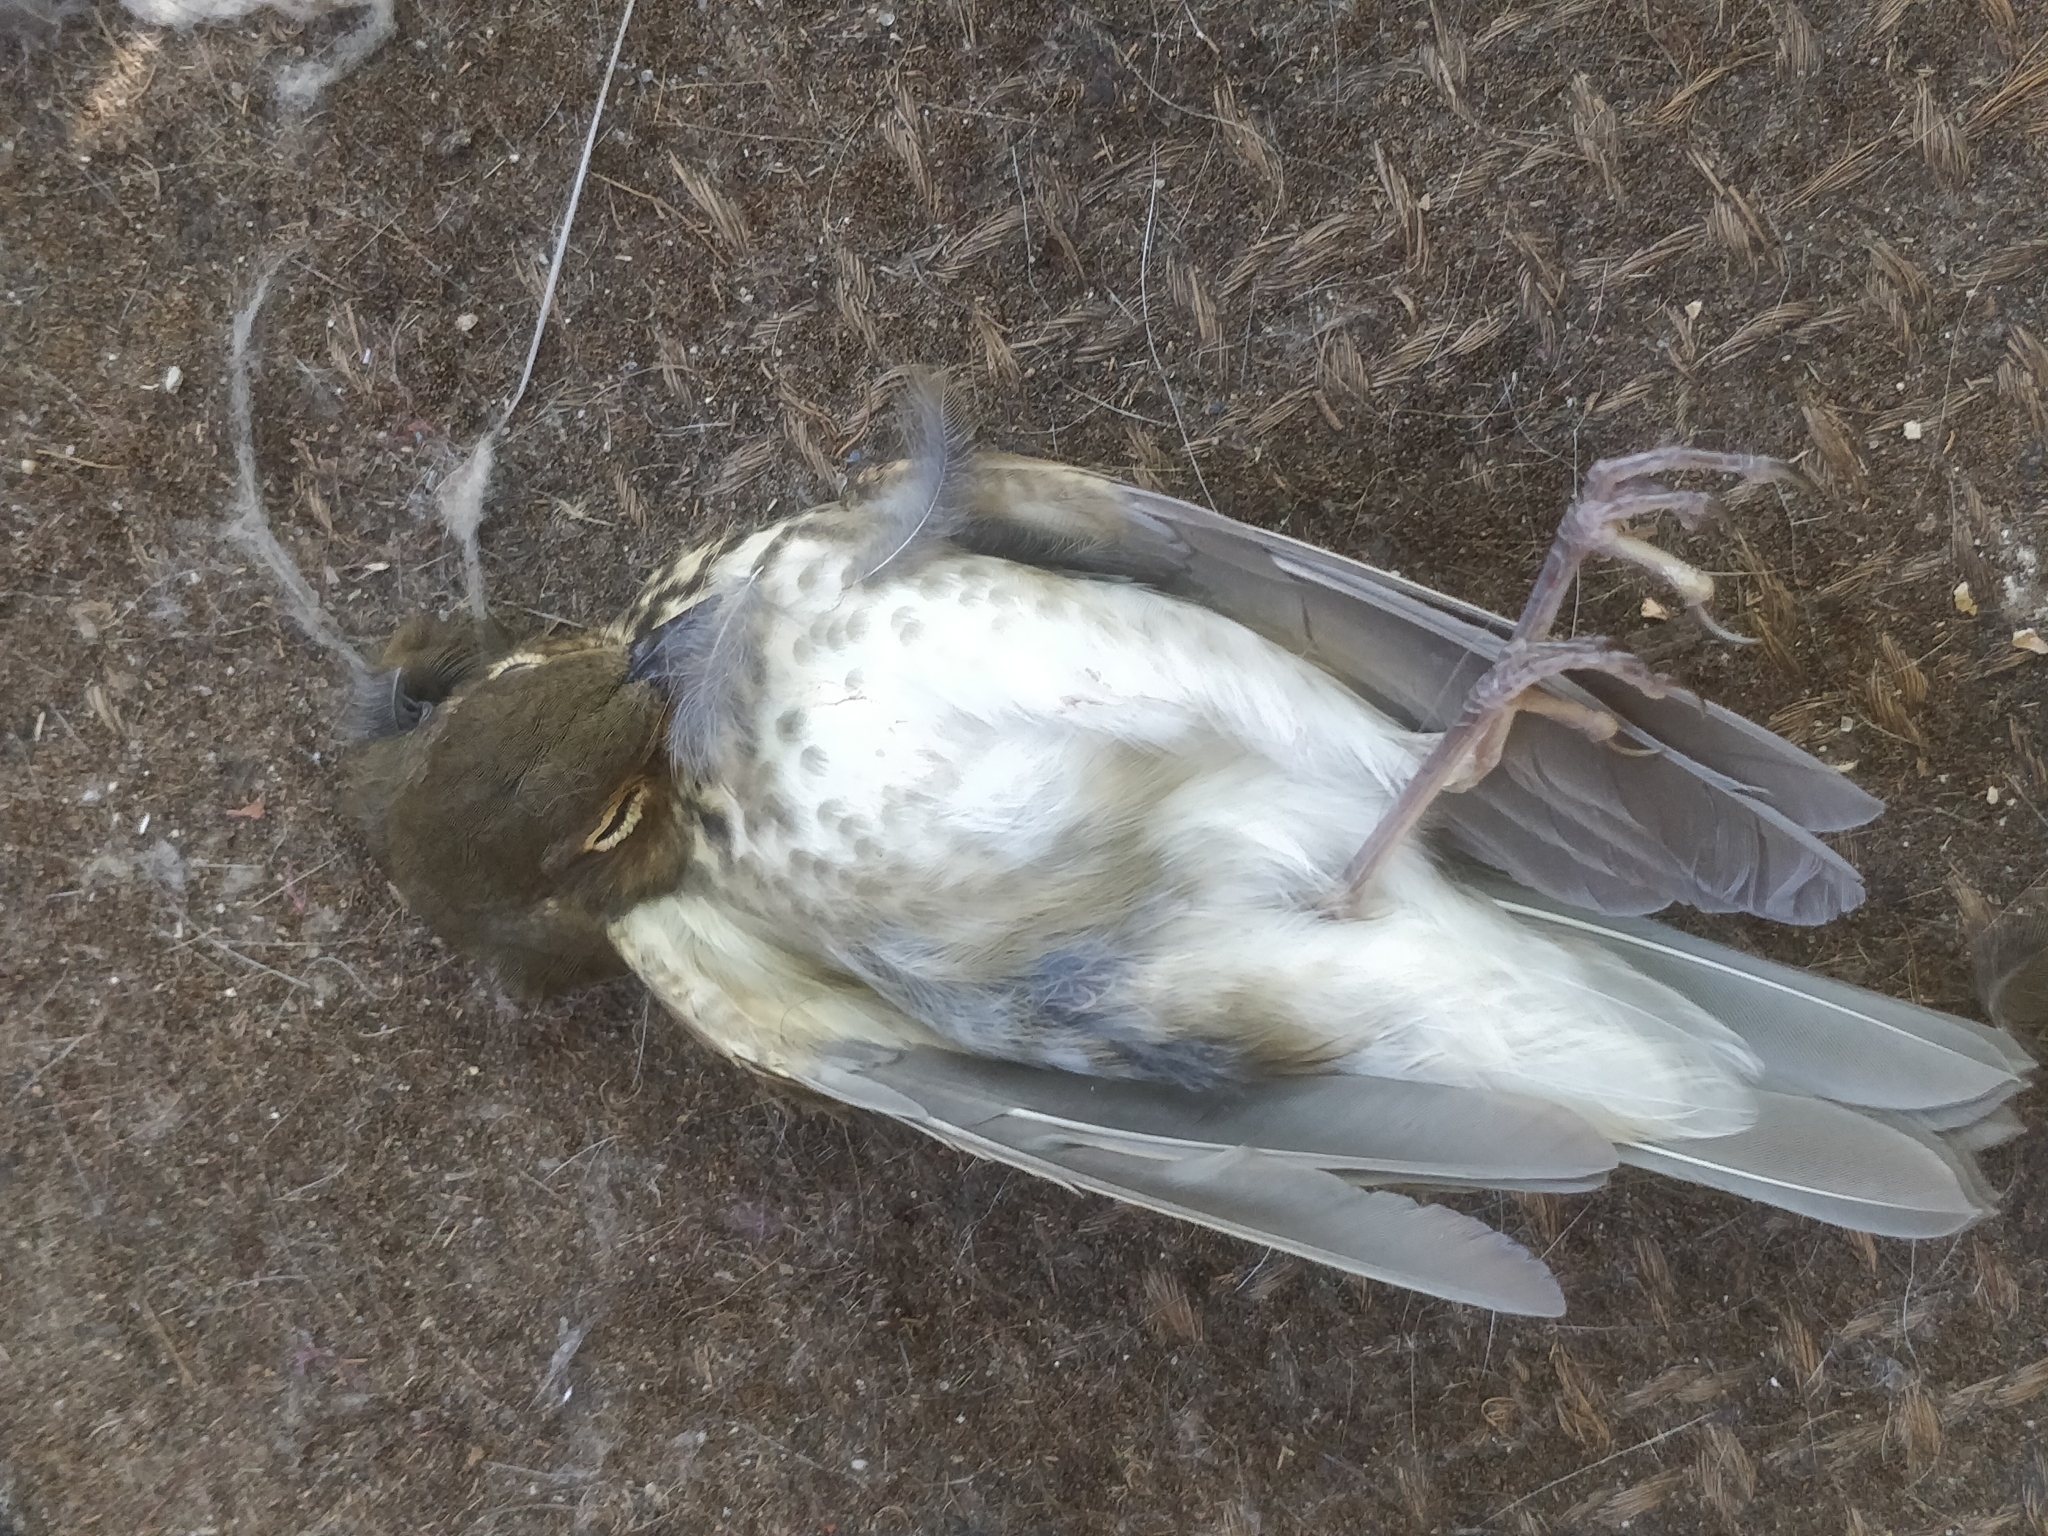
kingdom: Animalia
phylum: Chordata
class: Aves
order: Passeriformes
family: Turdidae
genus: Catharus
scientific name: Catharus ustulatus
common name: Swainson's thrush
